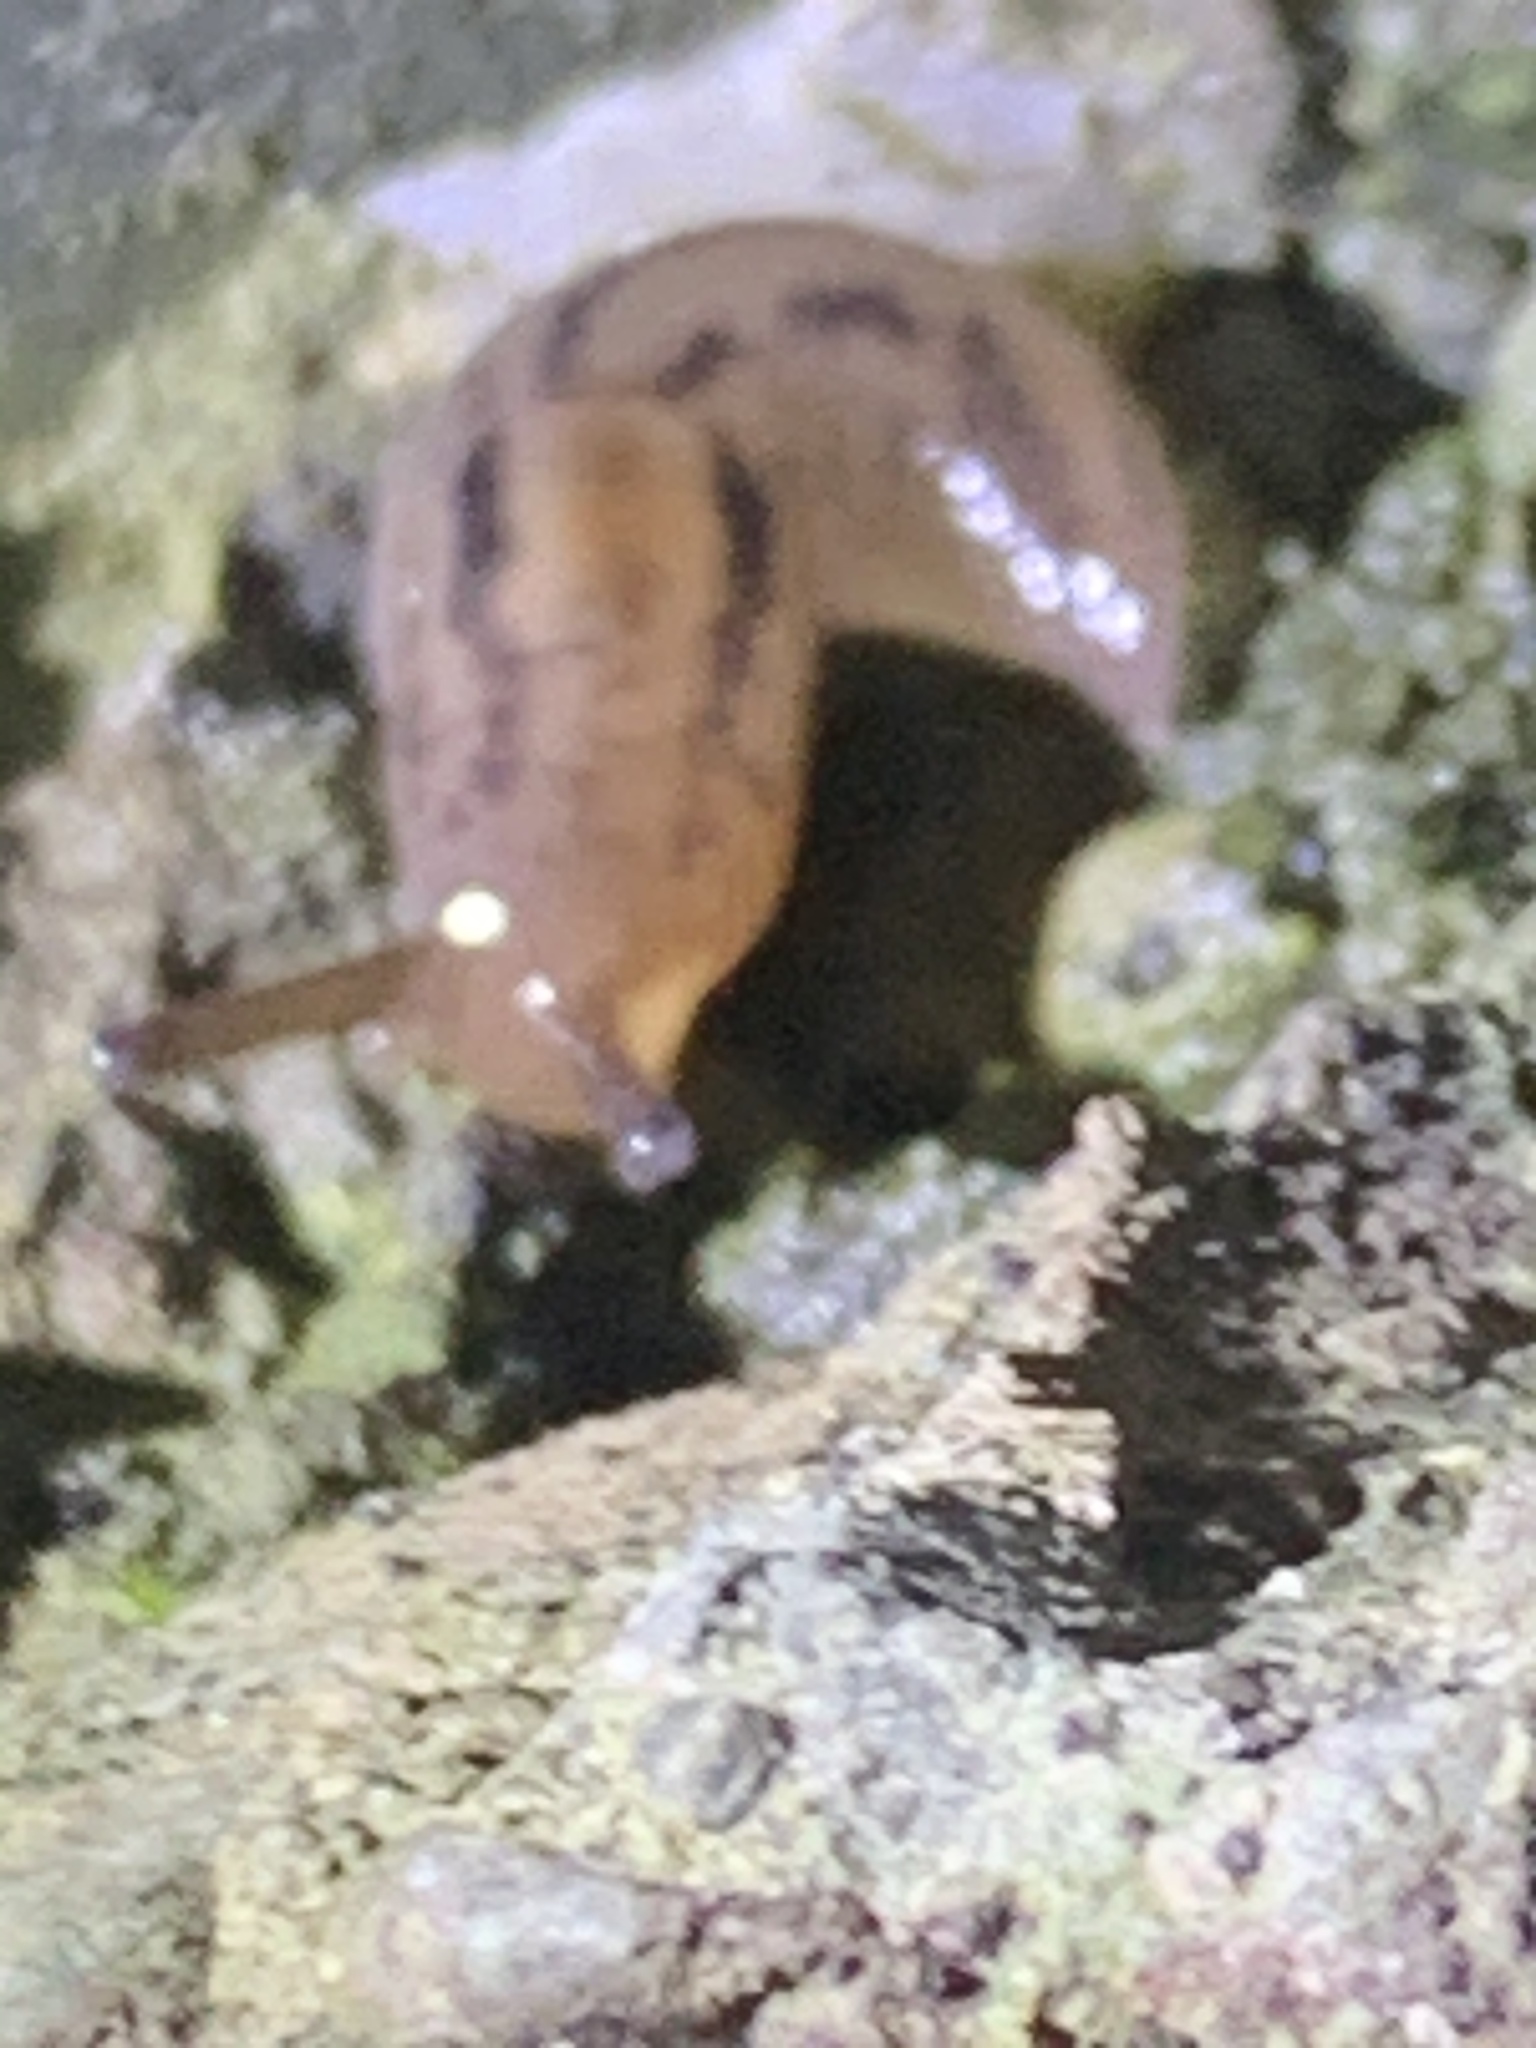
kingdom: Animalia
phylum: Mollusca
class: Gastropoda
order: Stylommatophora
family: Limacidae
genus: Ambigolimax
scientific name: Ambigolimax
